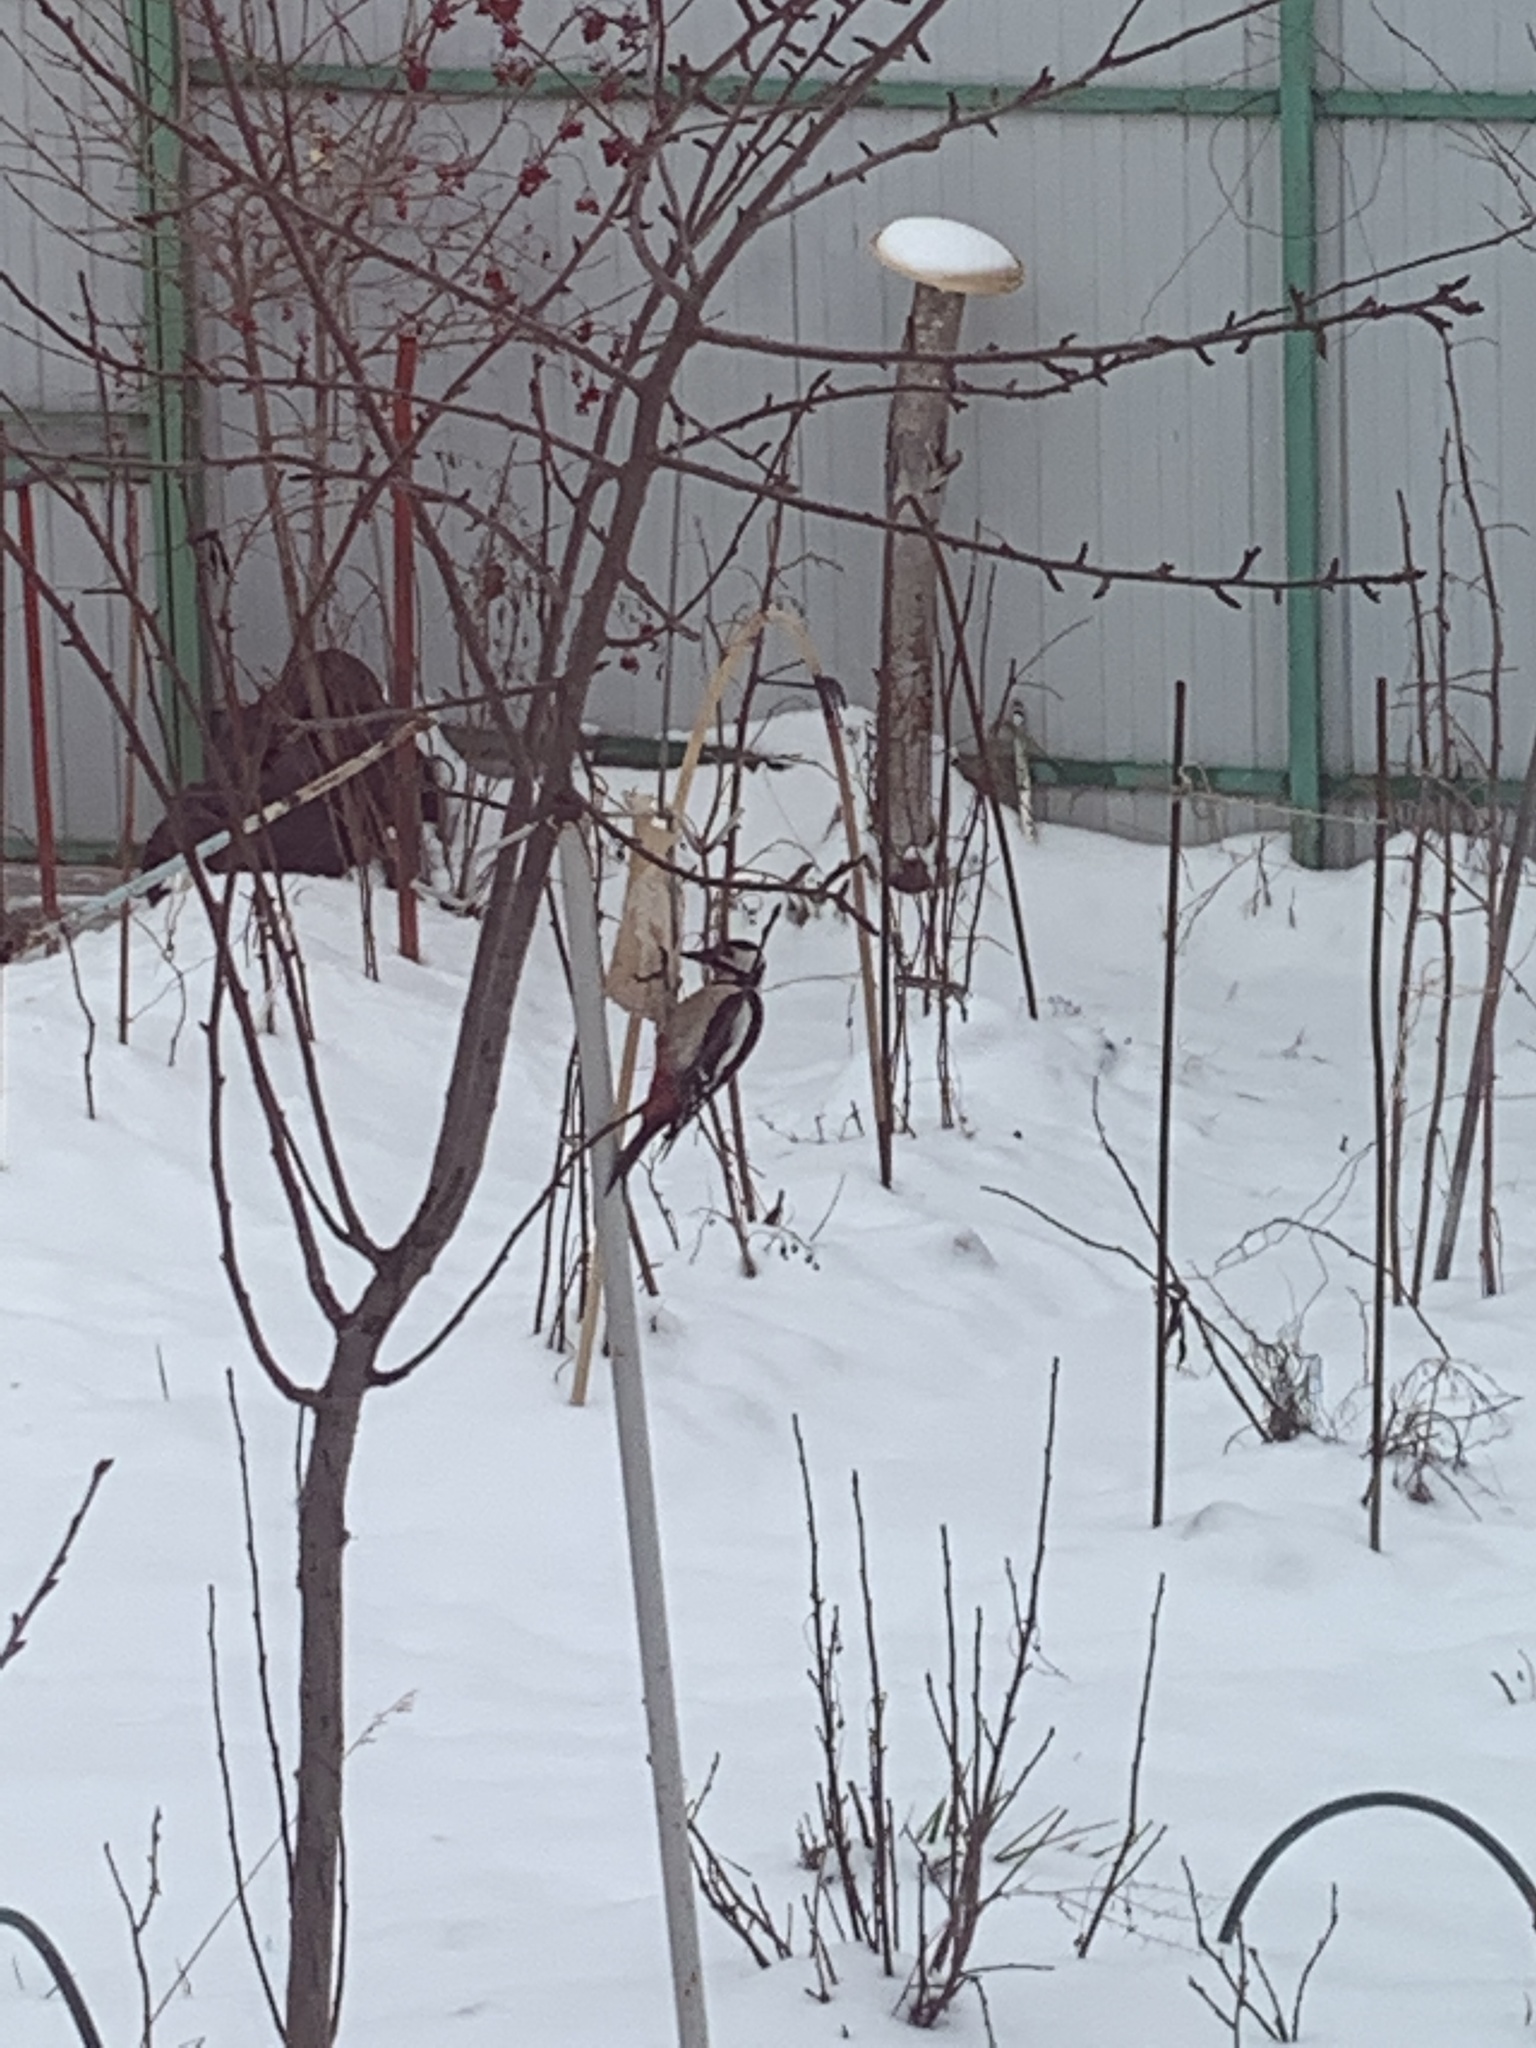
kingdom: Animalia
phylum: Chordata
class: Aves
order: Piciformes
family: Picidae
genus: Dendrocopos
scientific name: Dendrocopos major
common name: Great spotted woodpecker
